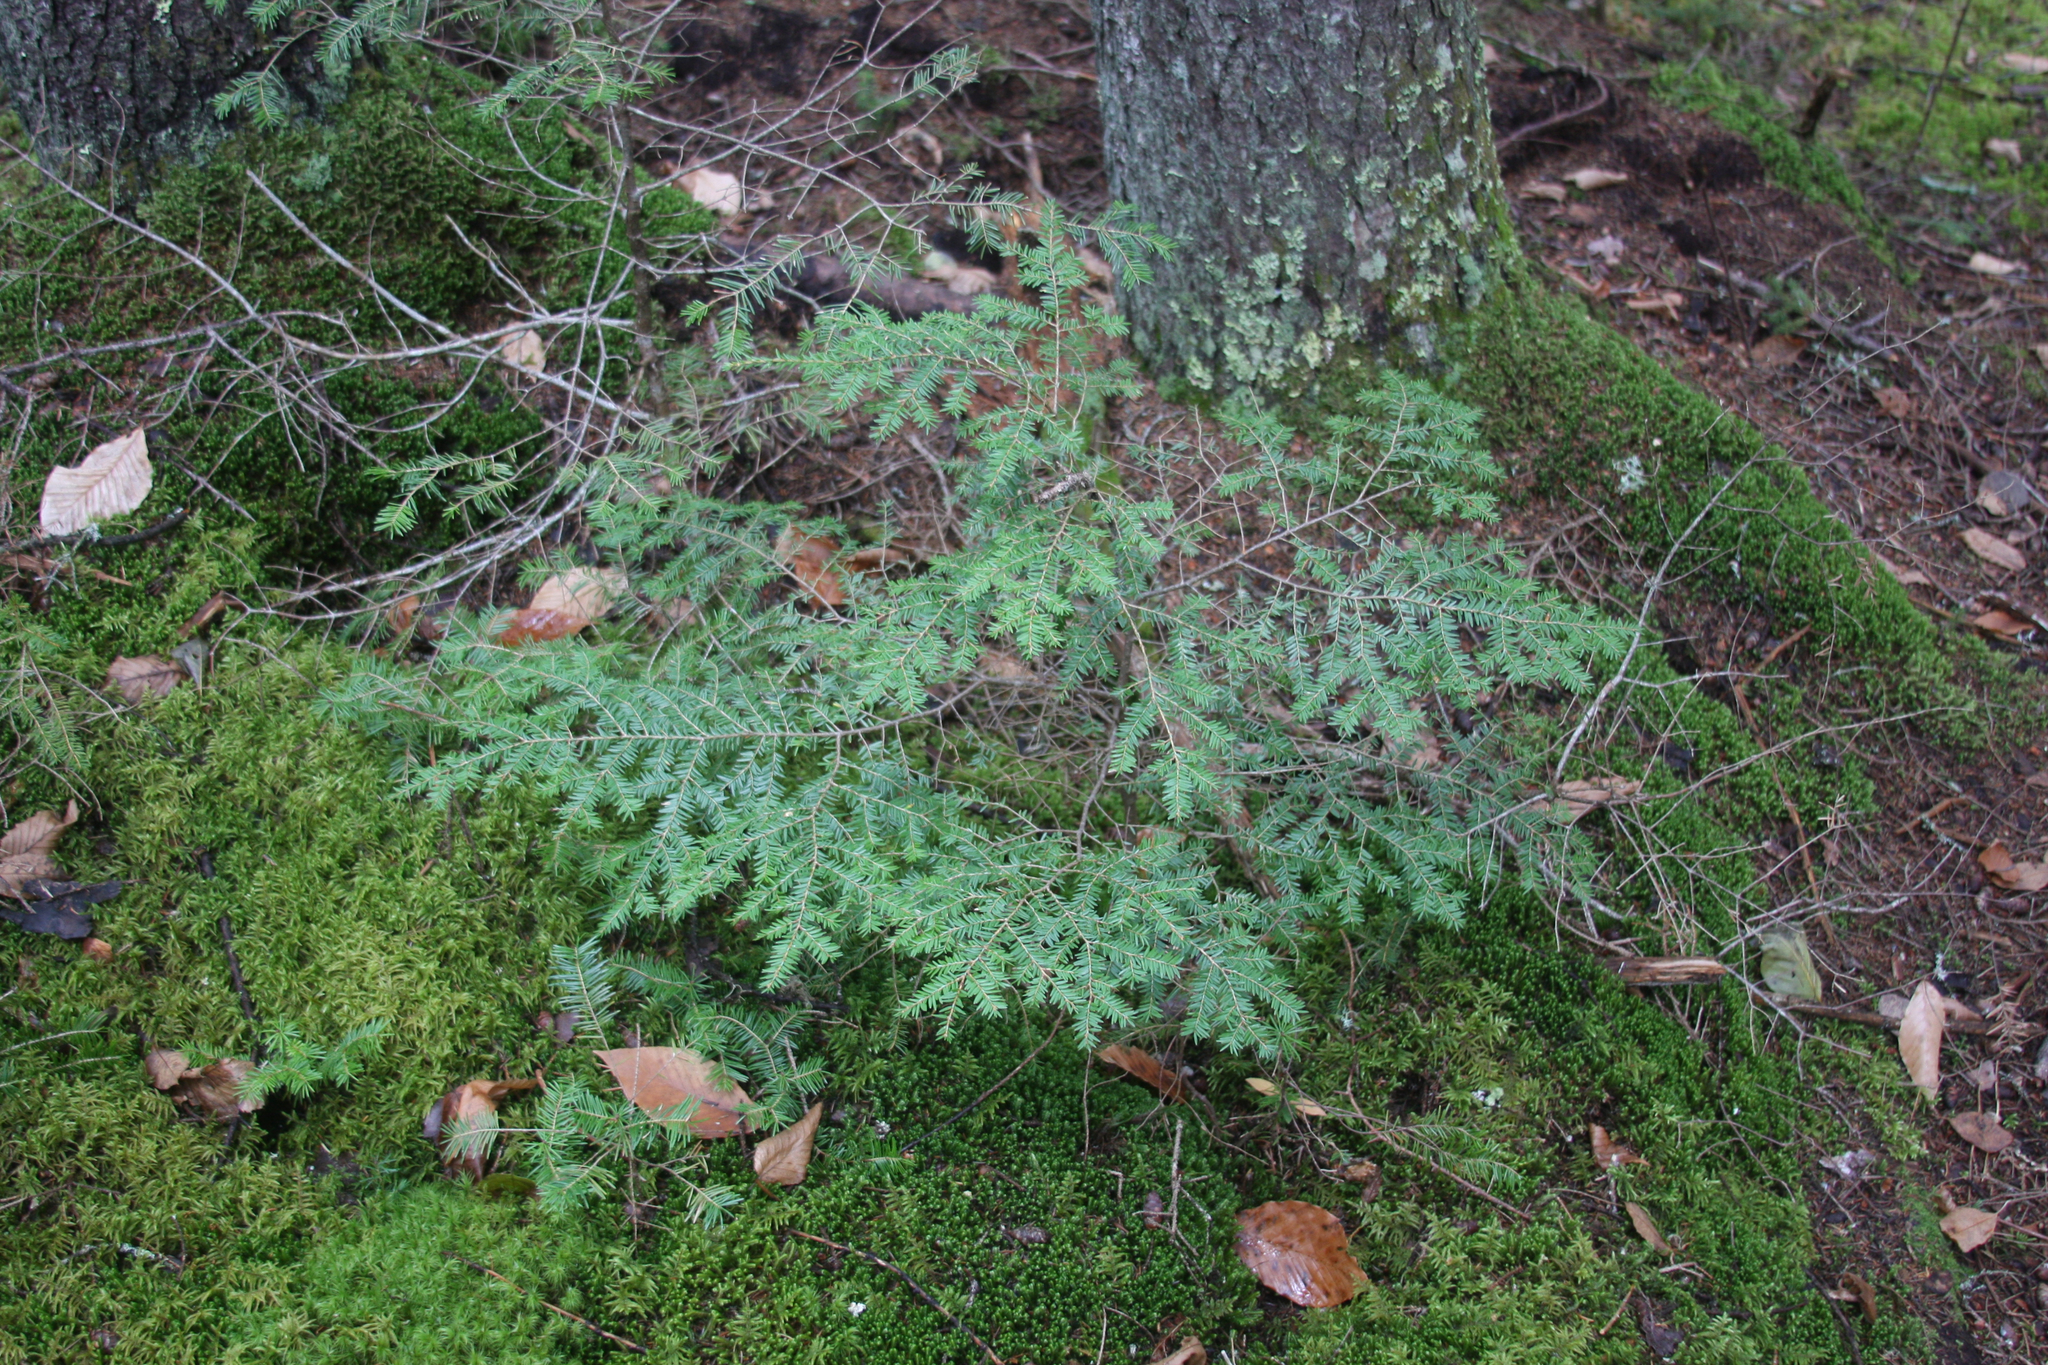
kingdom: Plantae
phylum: Tracheophyta
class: Pinopsida
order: Pinales
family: Pinaceae
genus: Tsuga
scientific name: Tsuga canadensis
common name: Eastern hemlock
